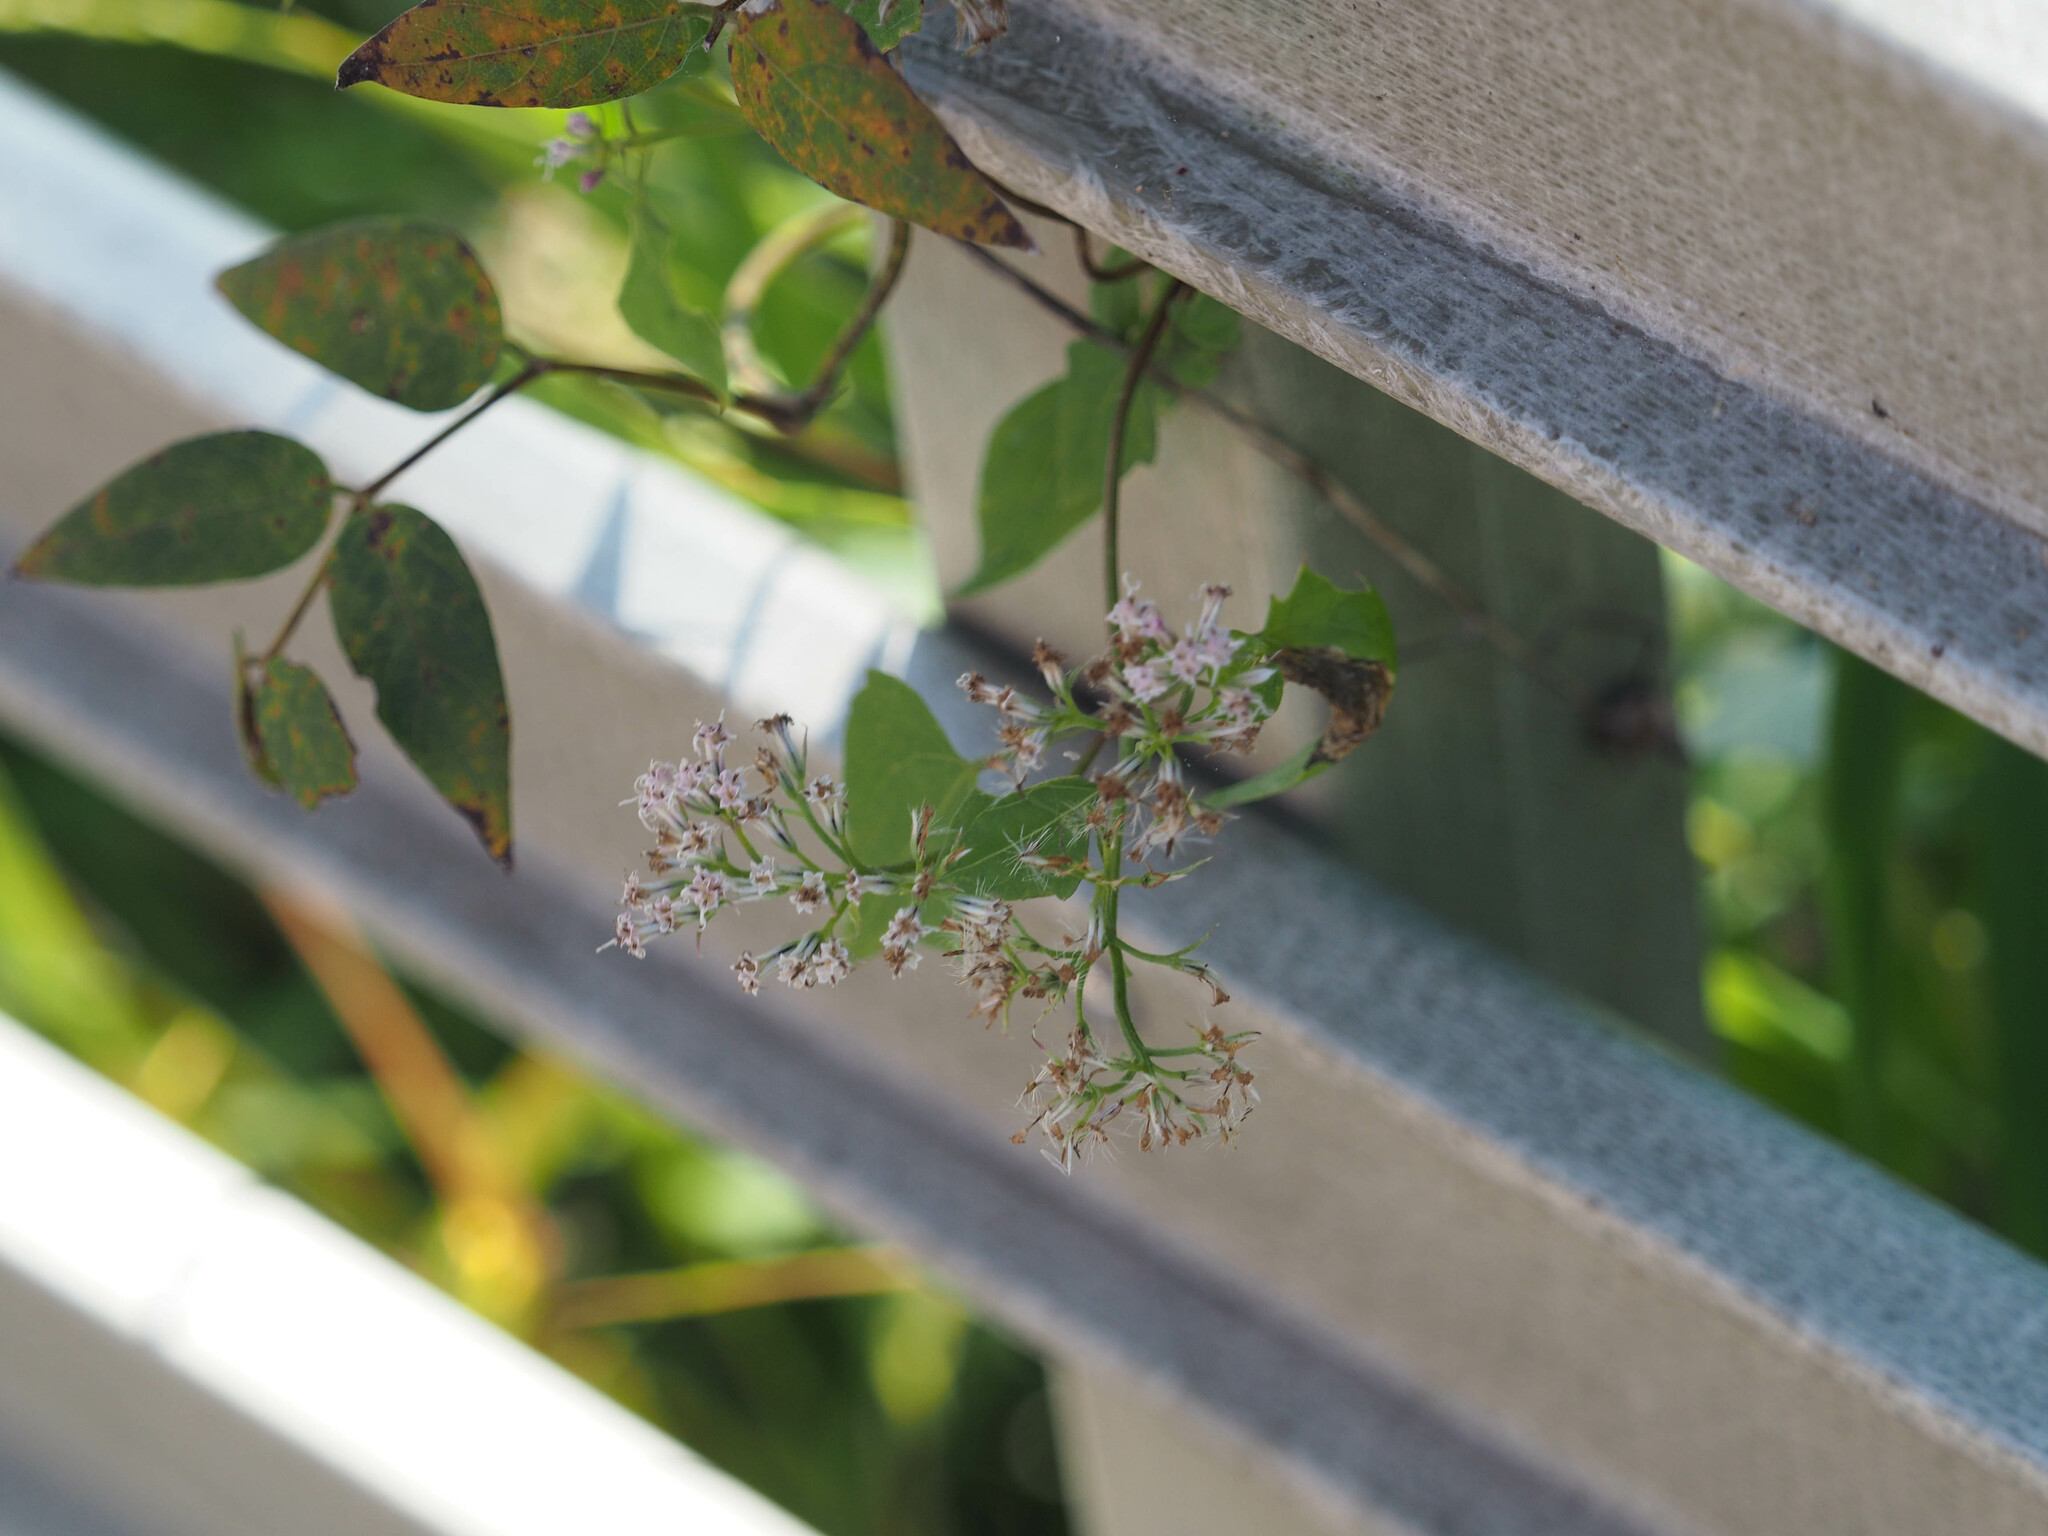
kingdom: Plantae
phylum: Tracheophyta
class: Magnoliopsida
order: Asterales
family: Asteraceae
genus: Mikania
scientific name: Mikania scandens
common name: Climbing hempvine
